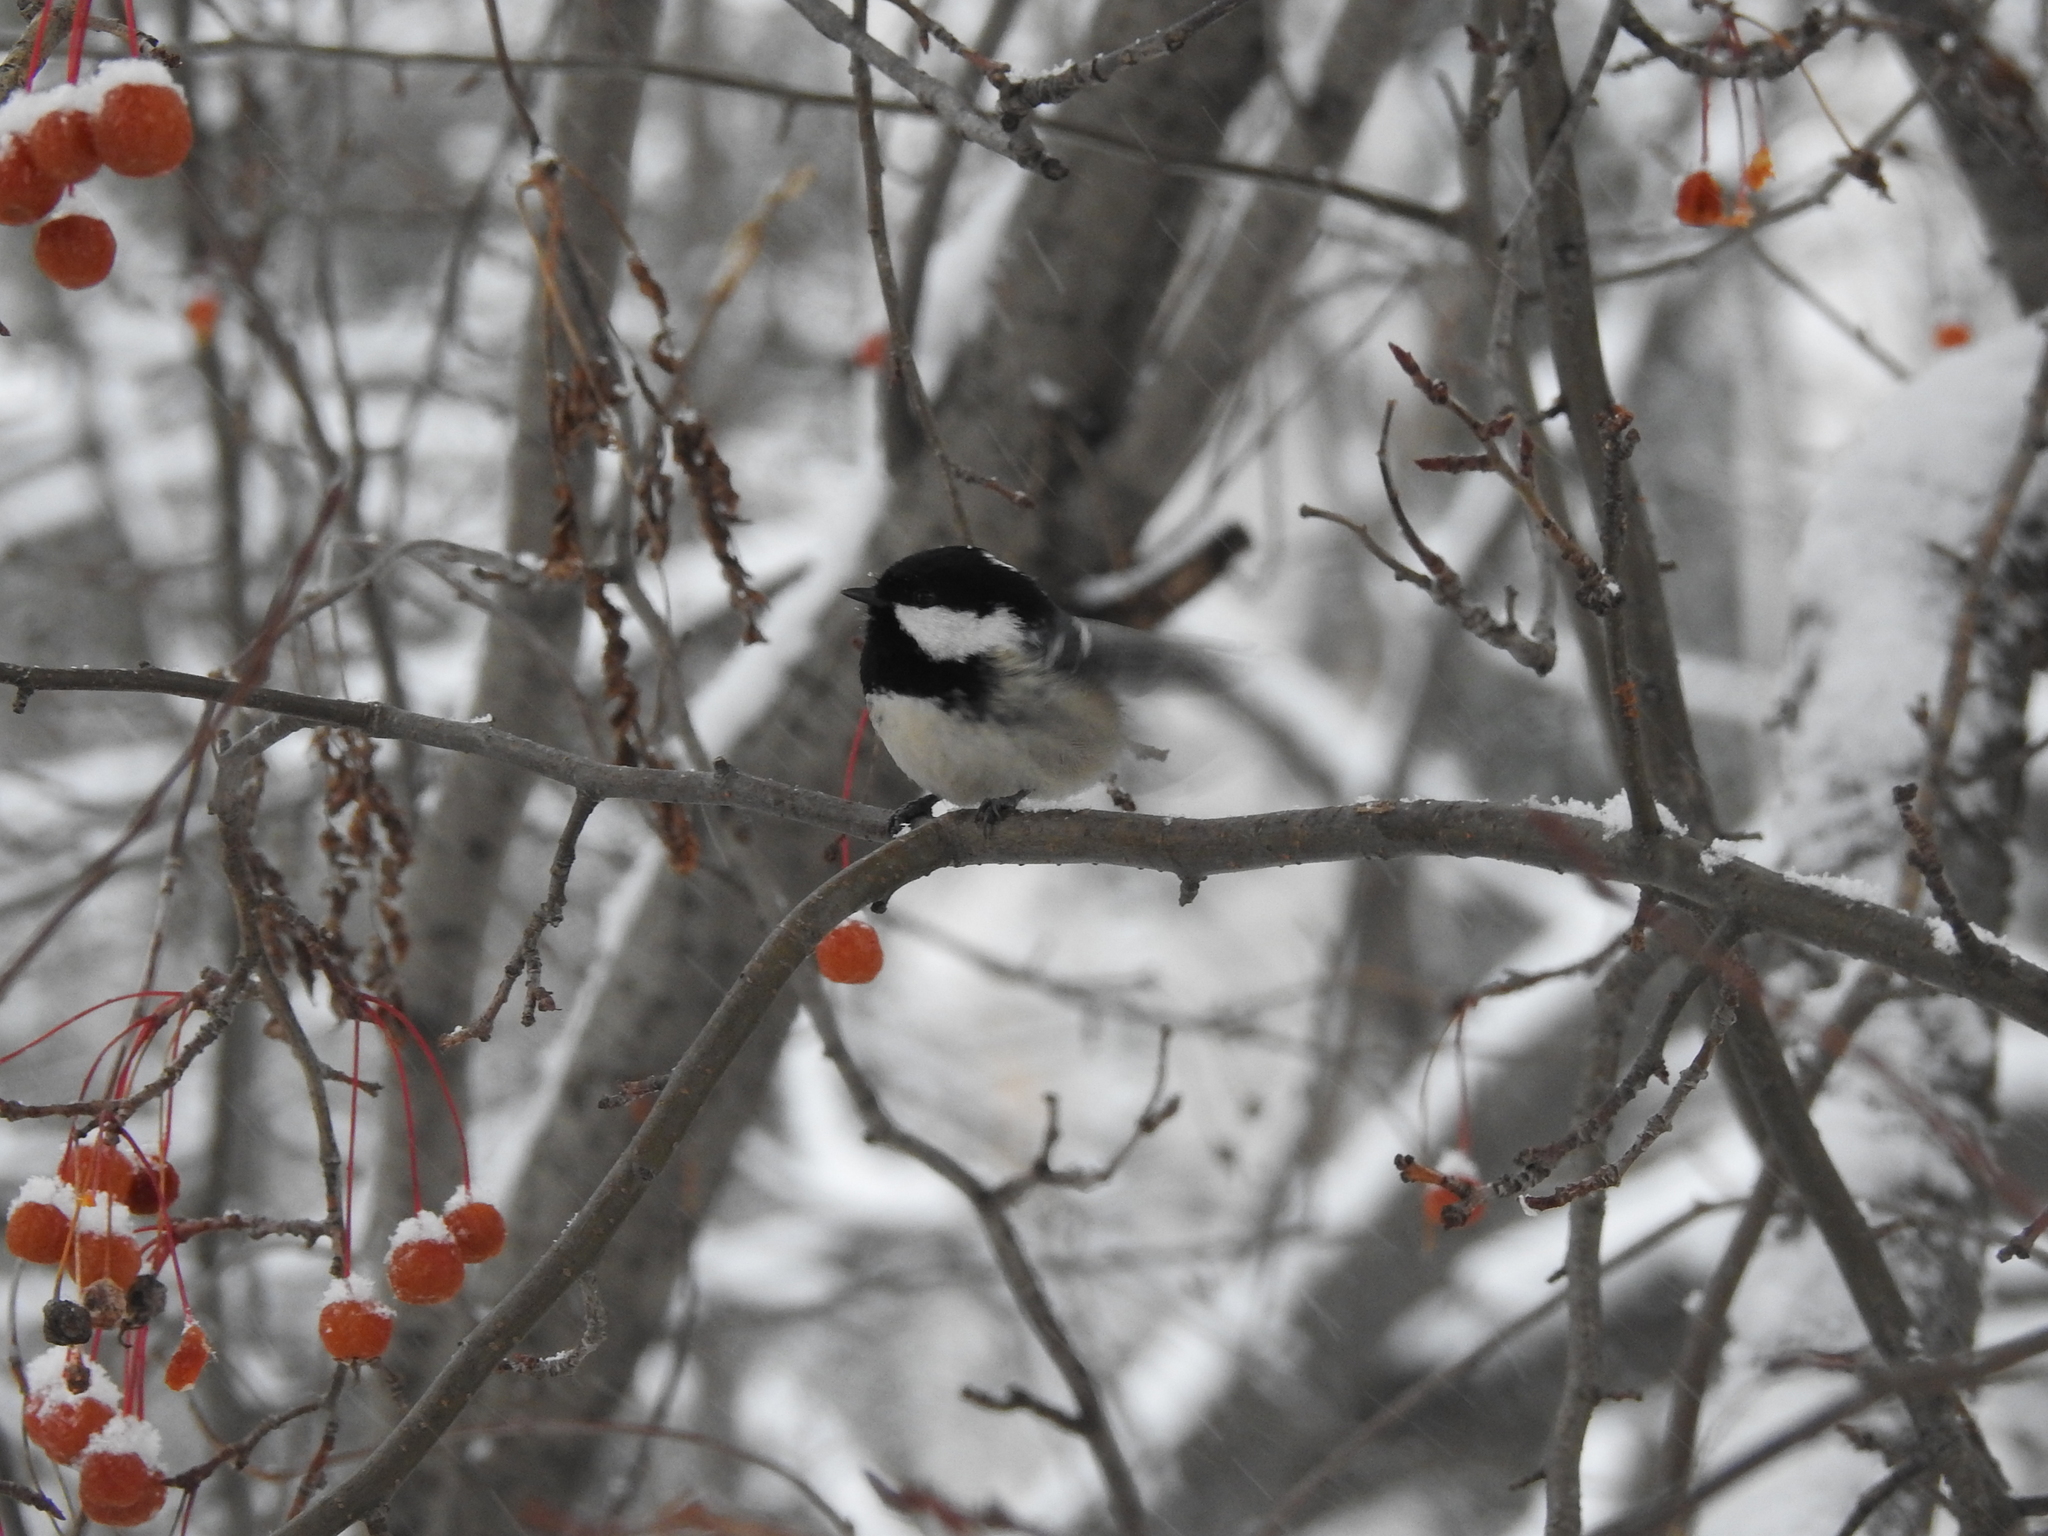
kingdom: Animalia
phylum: Chordata
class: Aves
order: Passeriformes
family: Paridae
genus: Periparus
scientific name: Periparus ater
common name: Coal tit
